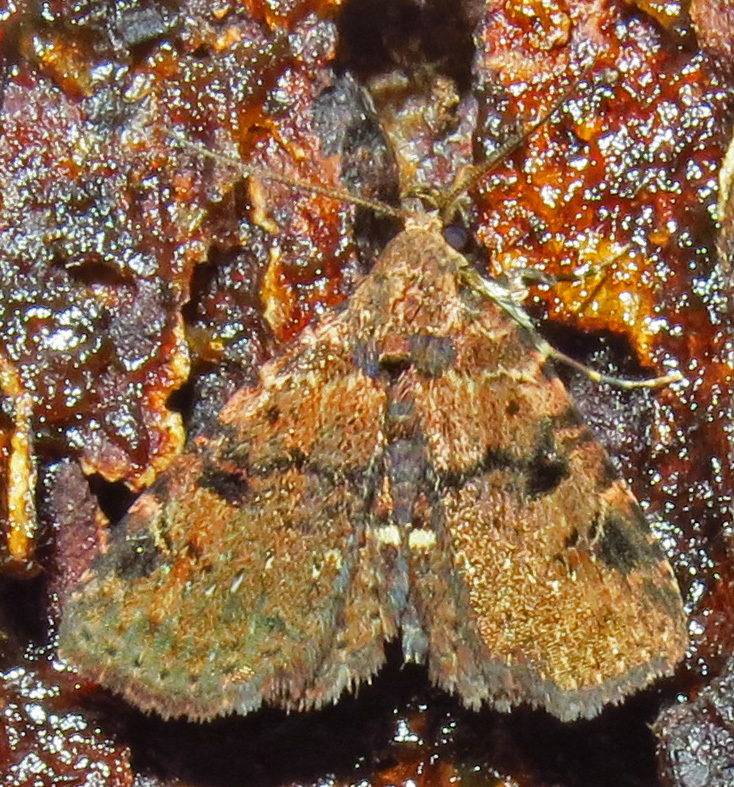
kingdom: Animalia
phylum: Arthropoda
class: Insecta
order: Lepidoptera
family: Erebidae
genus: Metalectra
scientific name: Metalectra quadrisignata
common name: Four-spotted fungus moth
